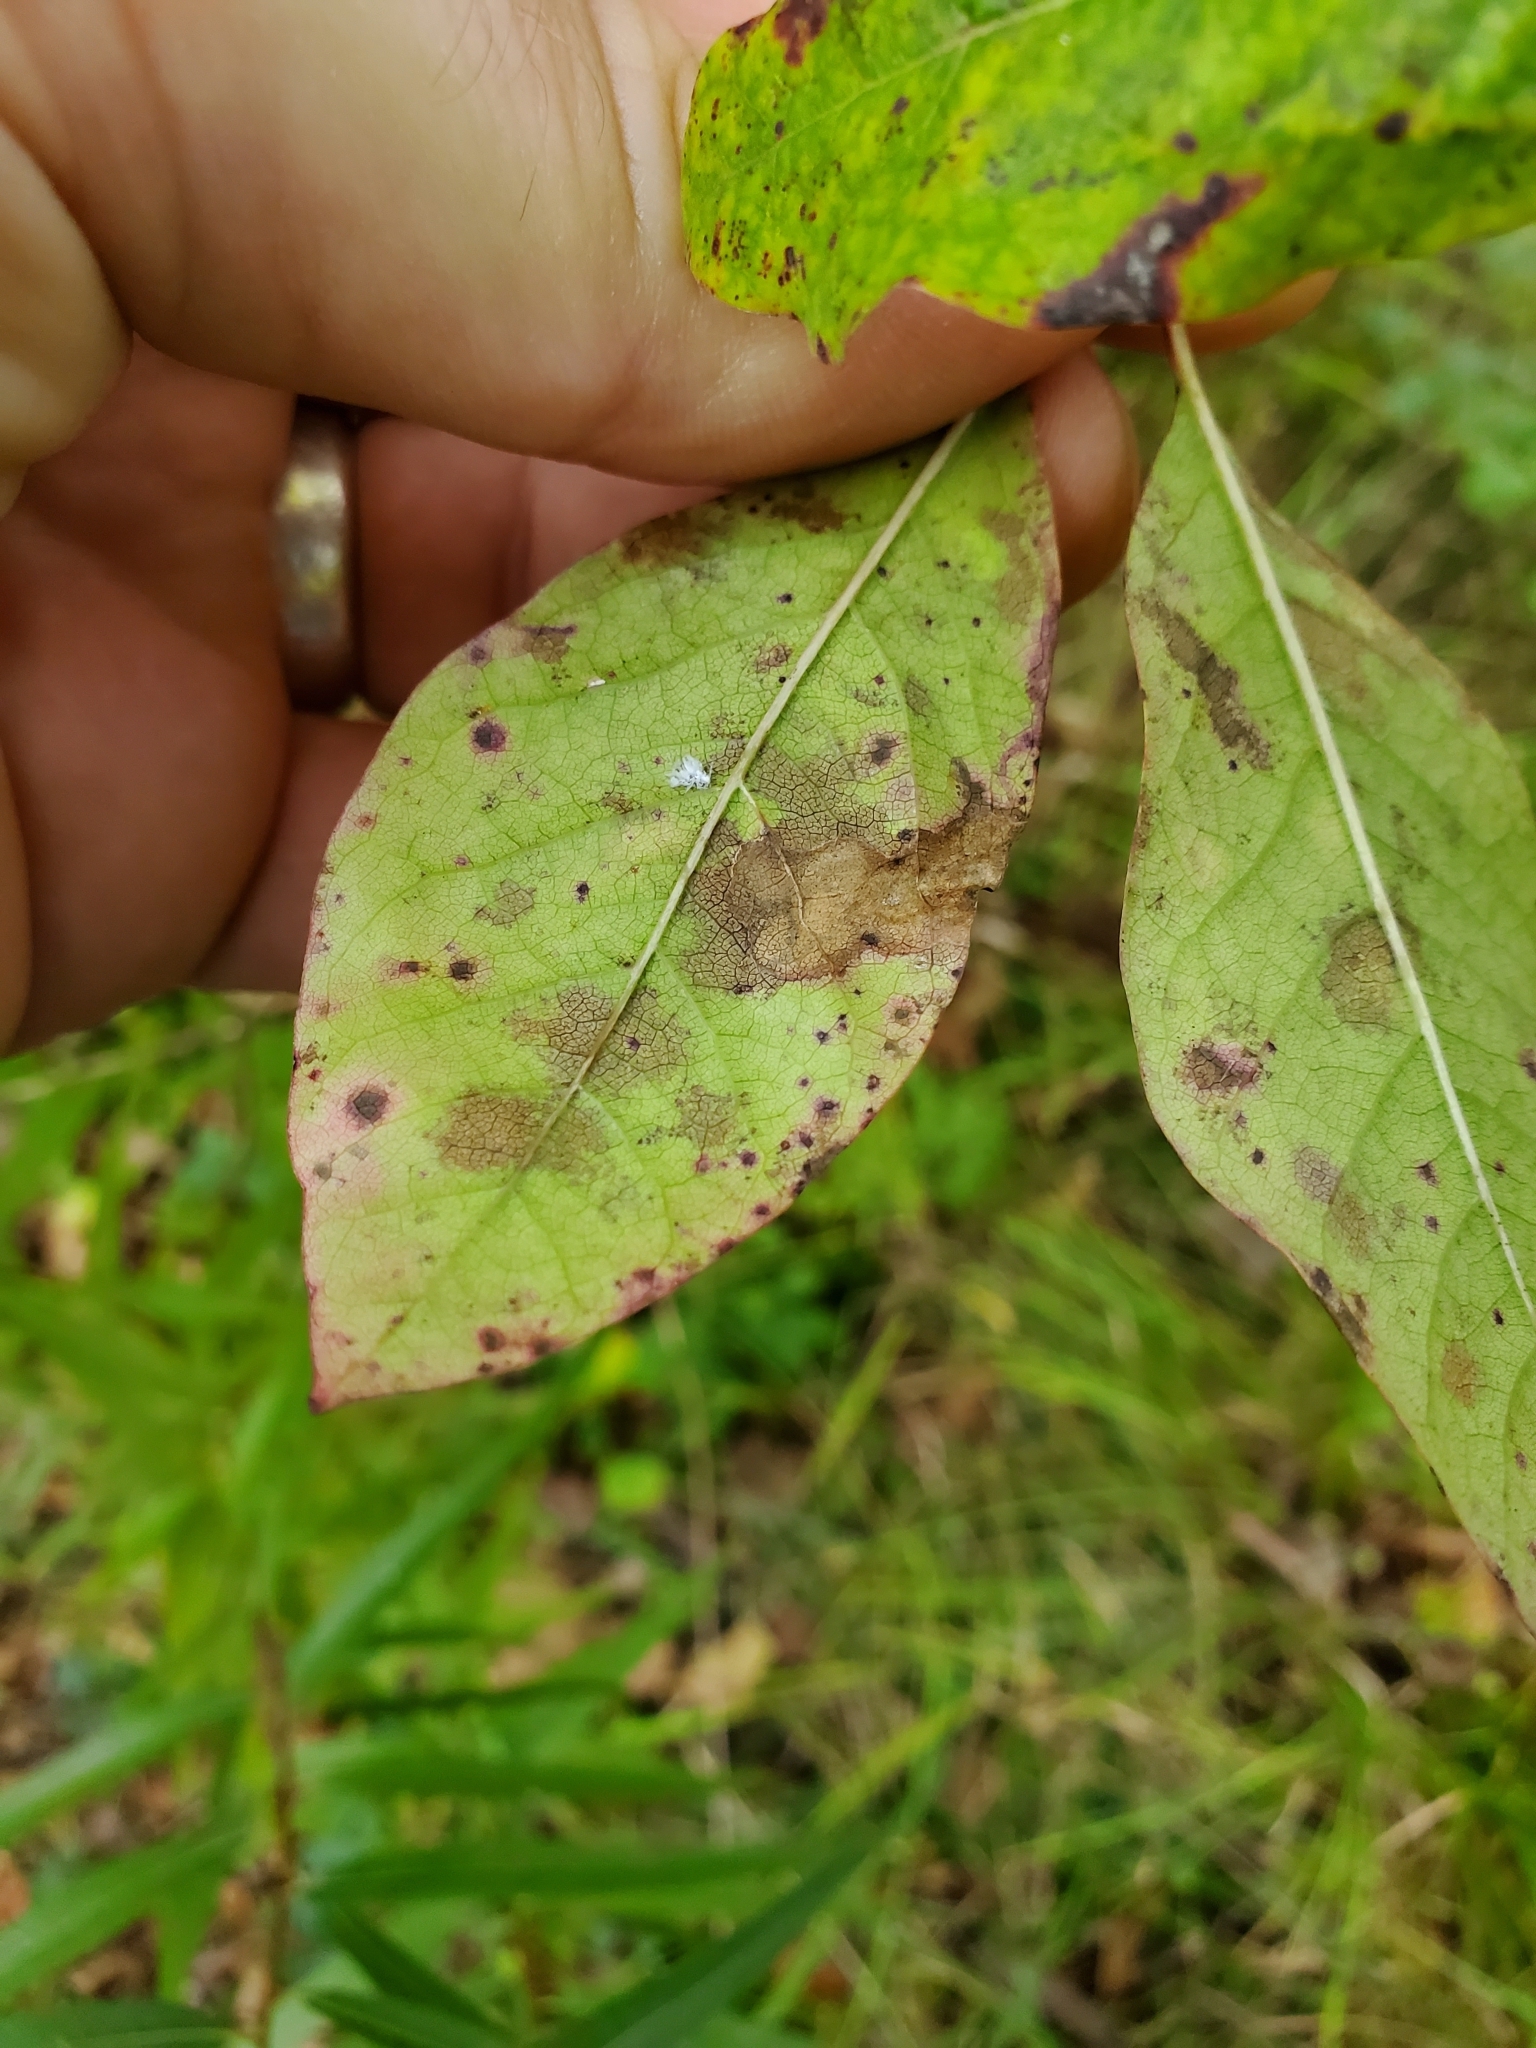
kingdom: Plantae
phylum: Tracheophyta
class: Magnoliopsida
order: Cornales
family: Nyssaceae
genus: Nyssa
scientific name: Nyssa sylvatica
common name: Black tupelo
